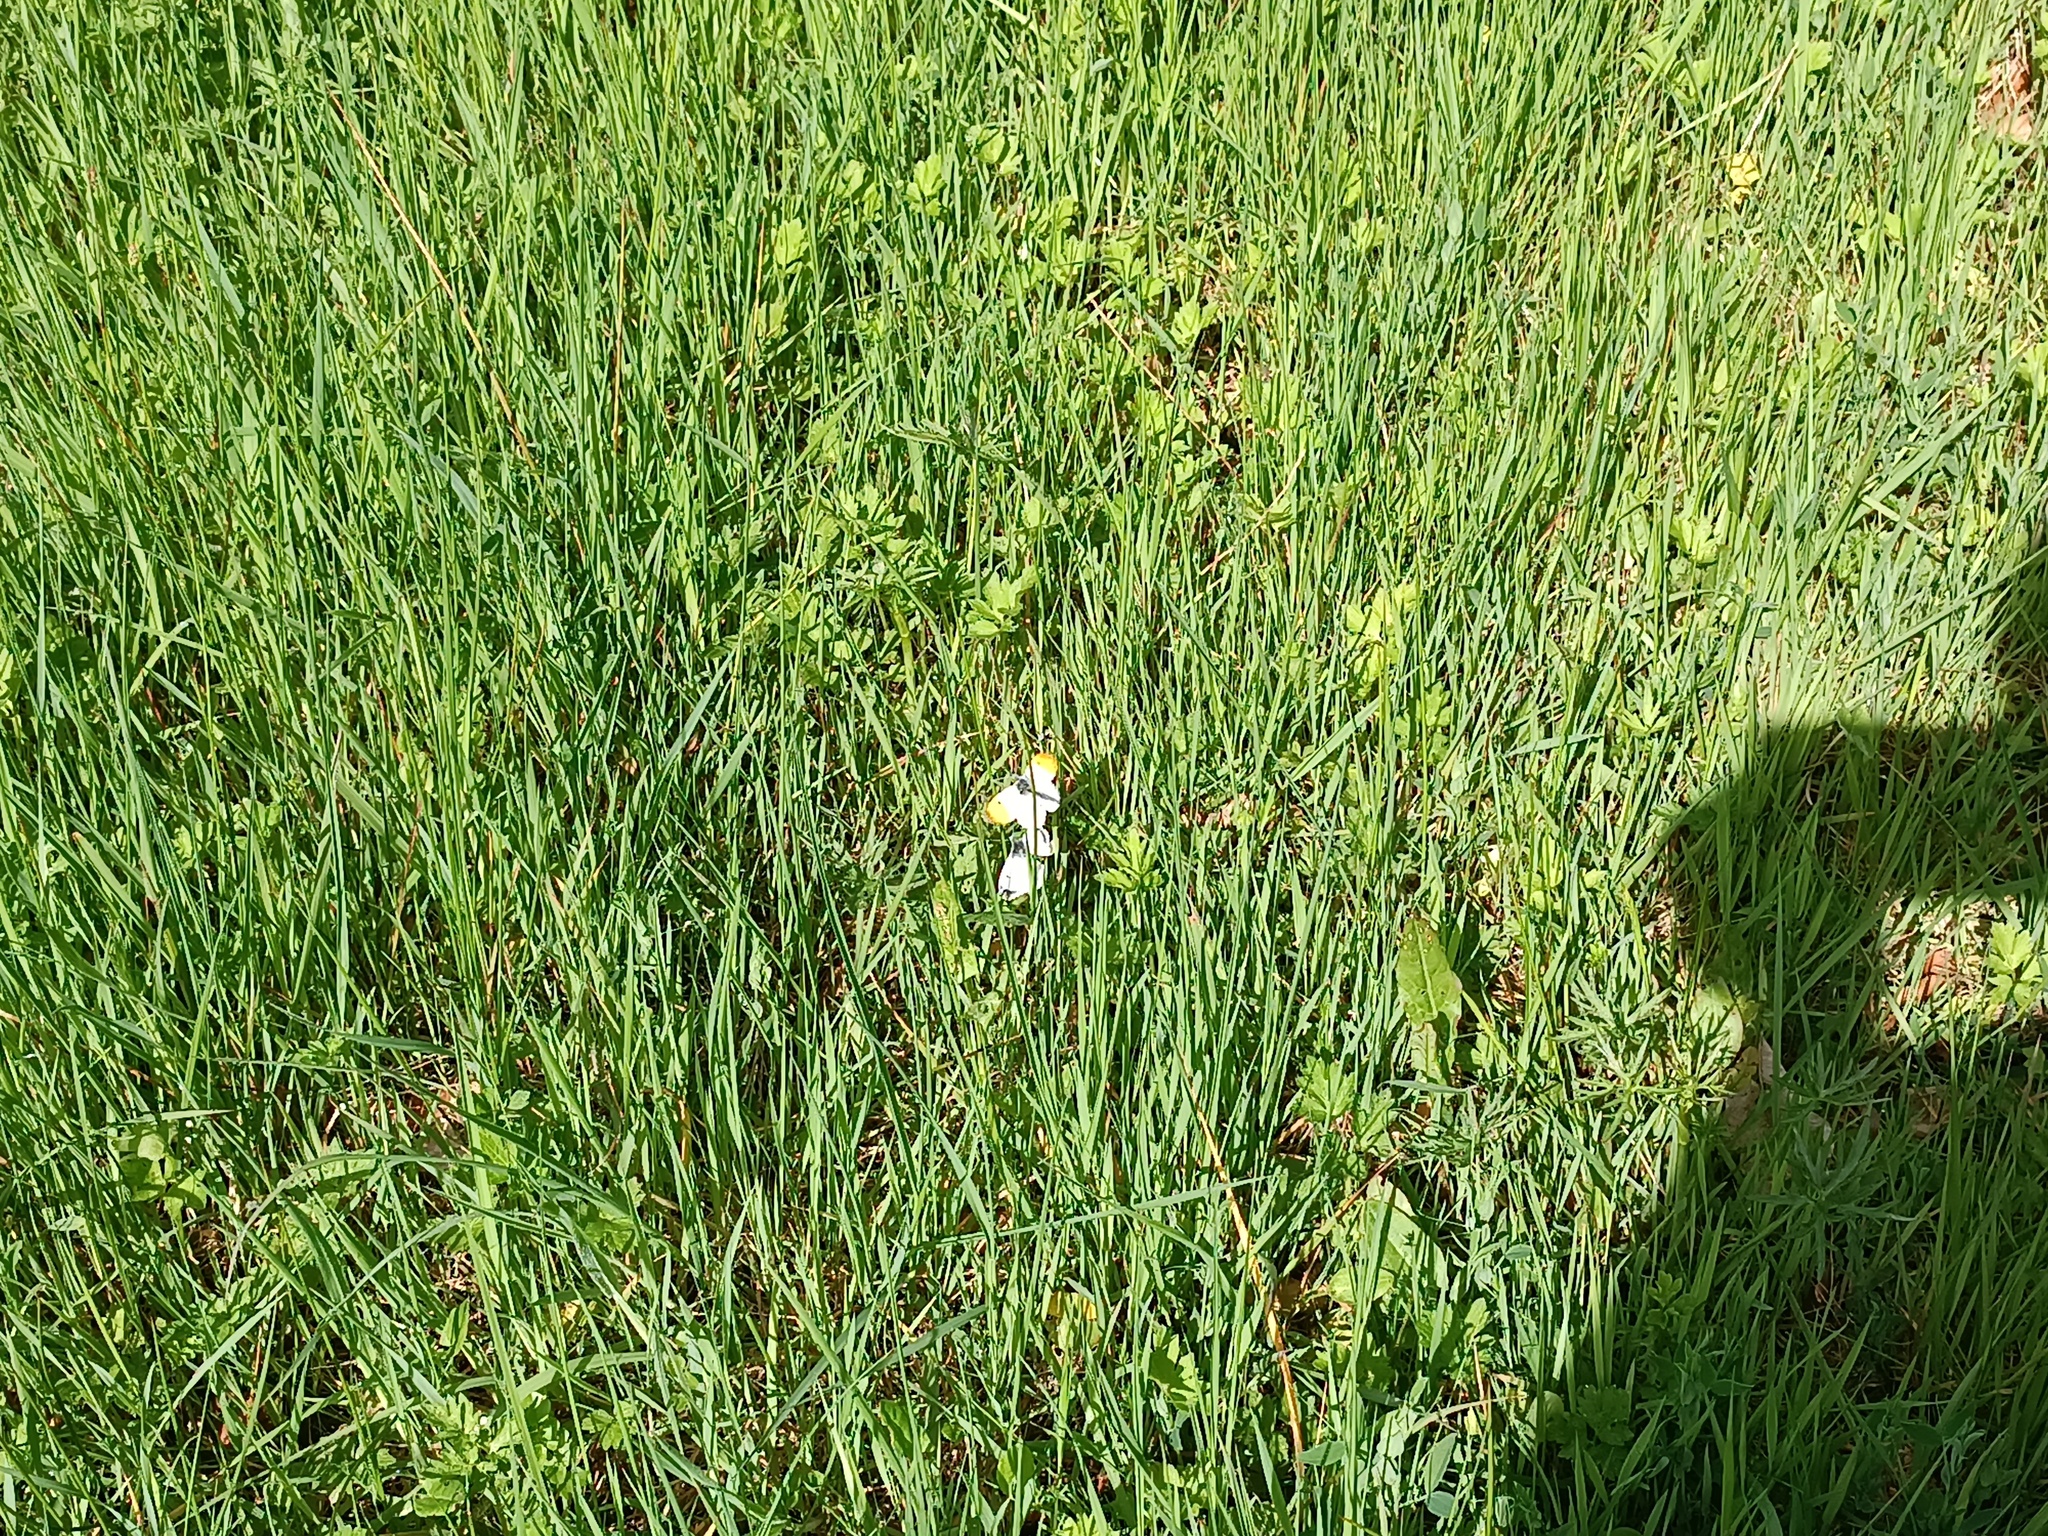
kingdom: Animalia
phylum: Arthropoda
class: Insecta
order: Lepidoptera
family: Pieridae
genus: Anthocharis
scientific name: Anthocharis cardamines
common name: Orange-tip
